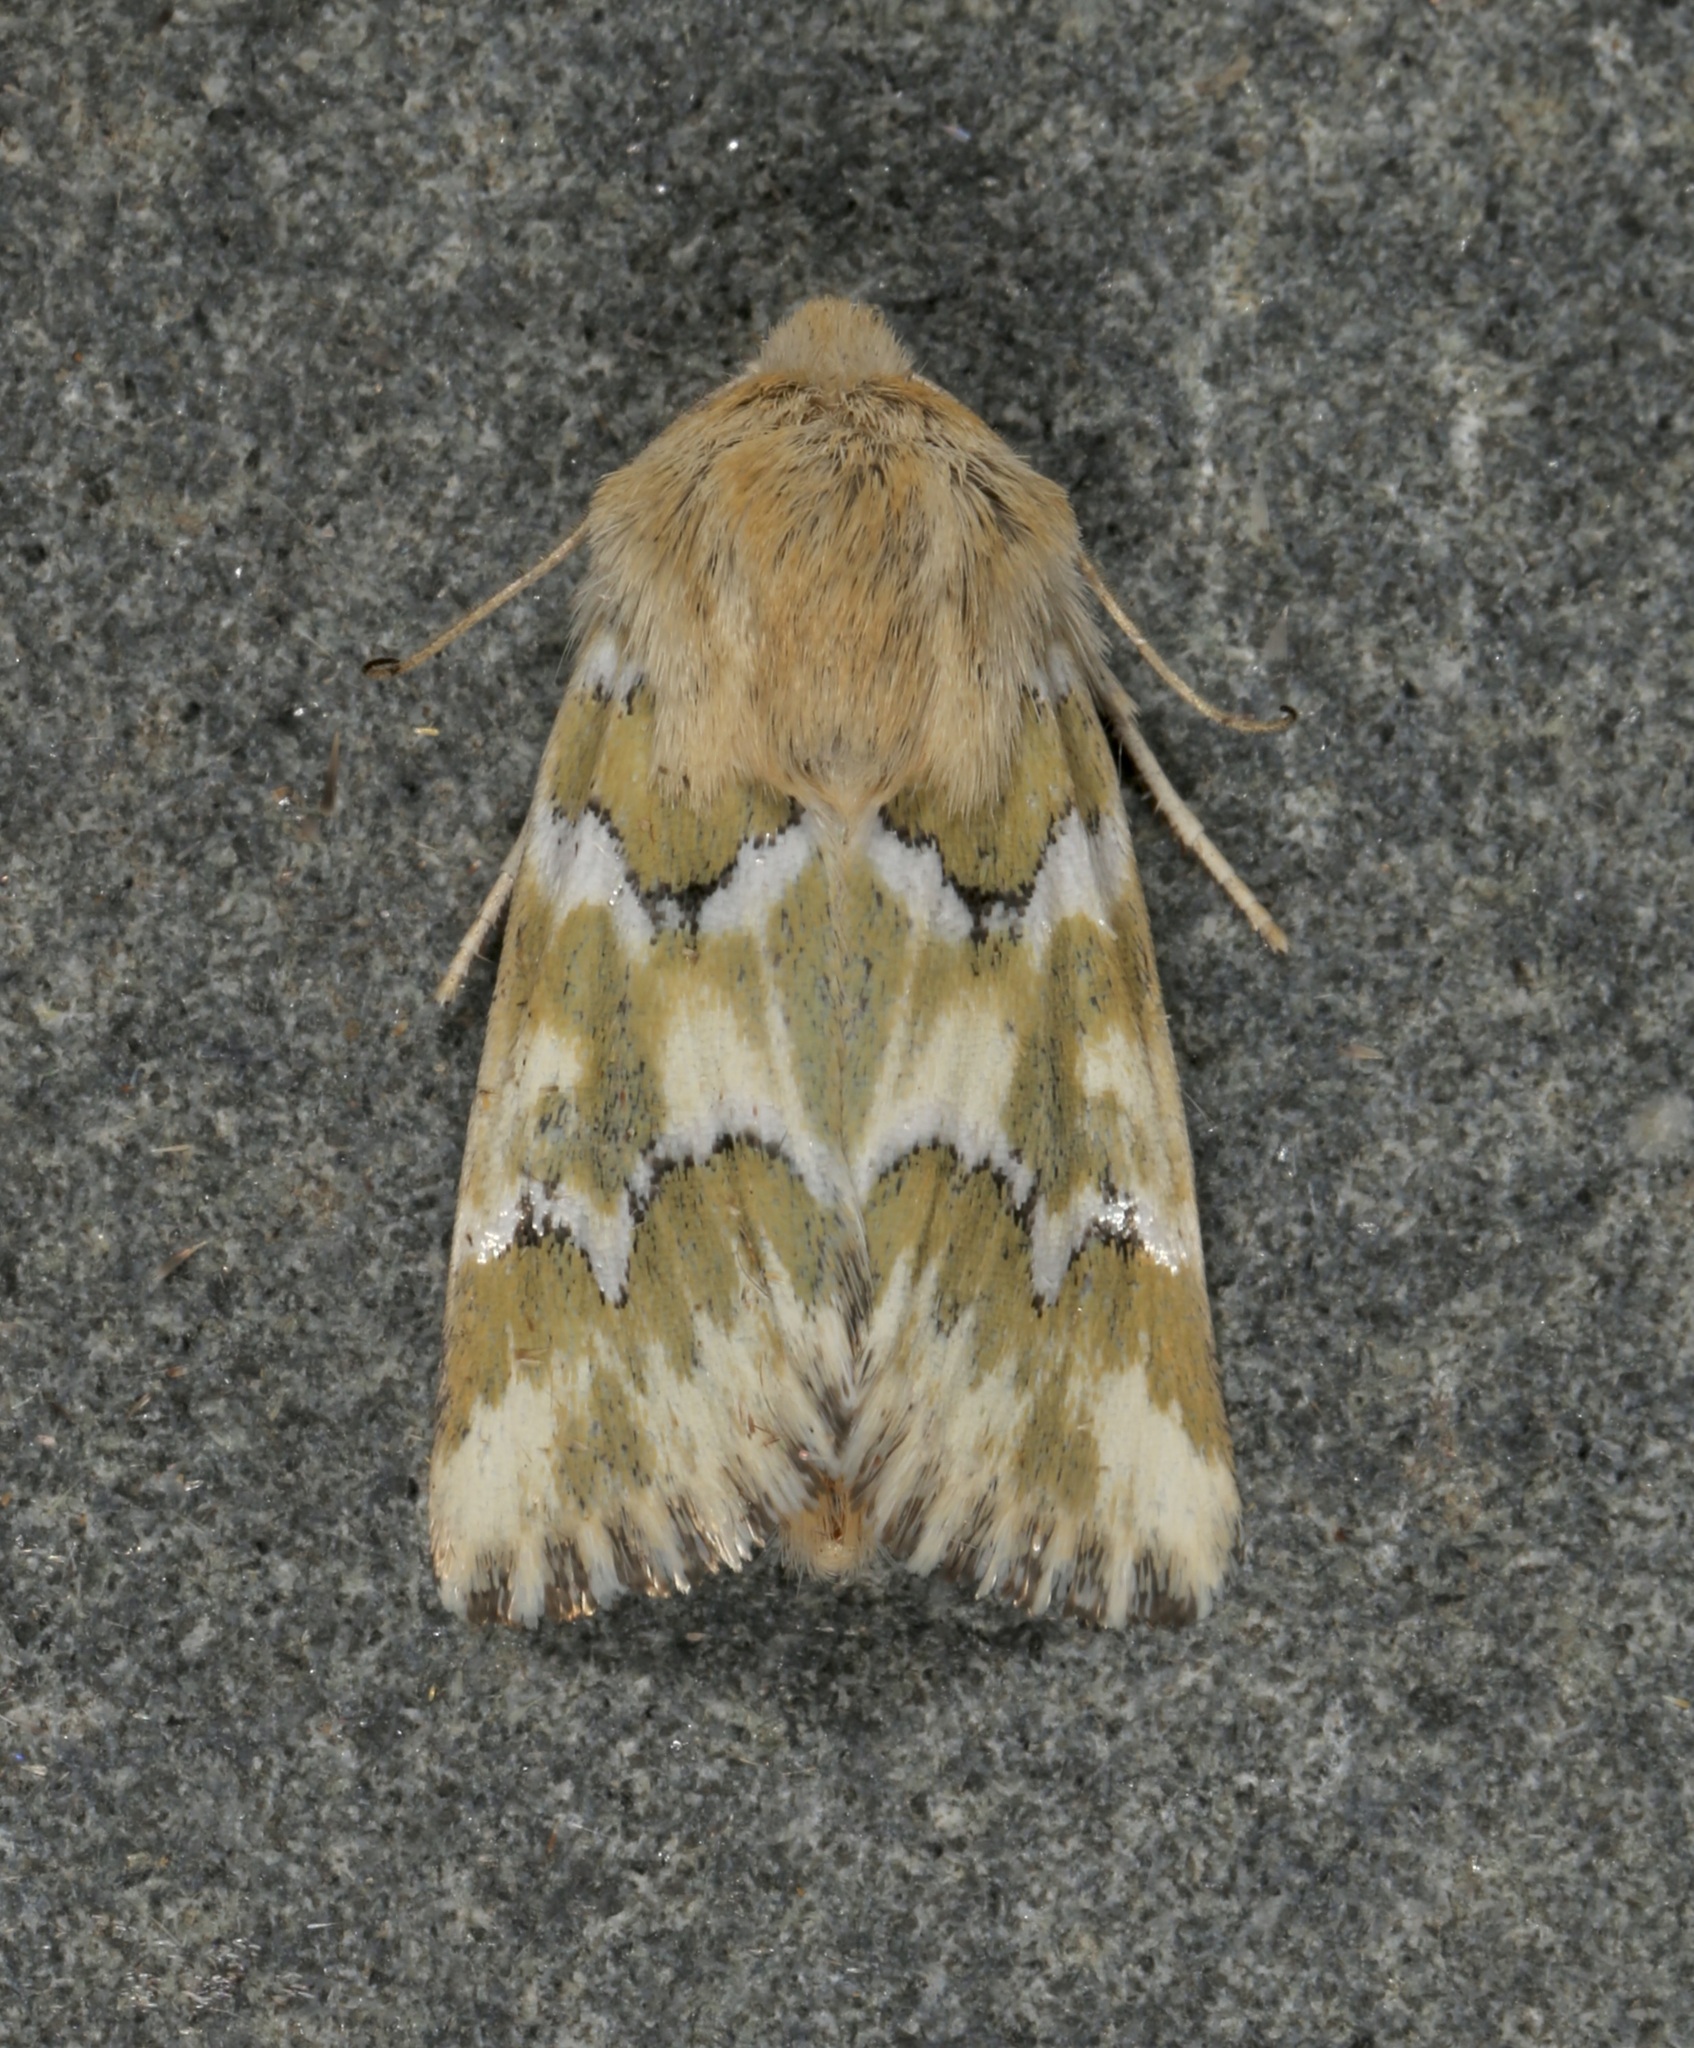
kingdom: Animalia
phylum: Arthropoda
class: Insecta
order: Lepidoptera
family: Noctuidae
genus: Schinia
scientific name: Schinia meadi
